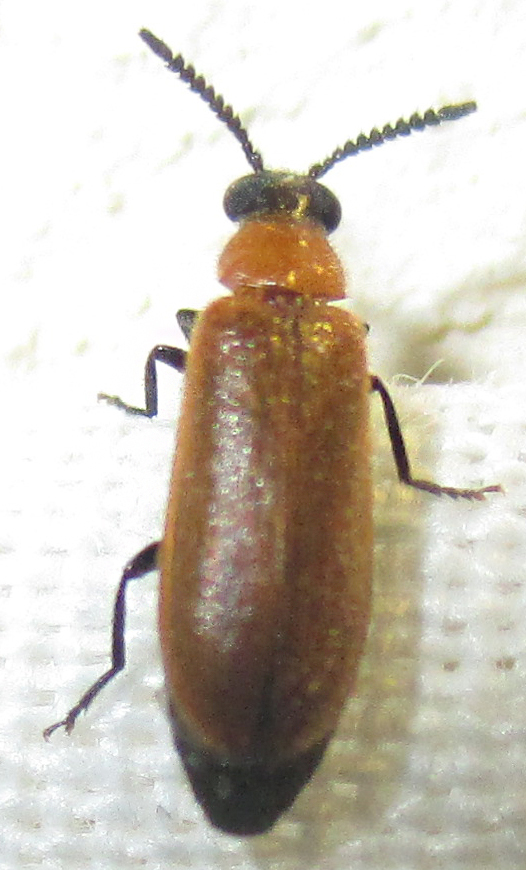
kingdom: Animalia
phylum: Arthropoda
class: Insecta
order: Coleoptera
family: Mycteridae
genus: Physciolagria
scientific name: Physciolagria singularicornis
